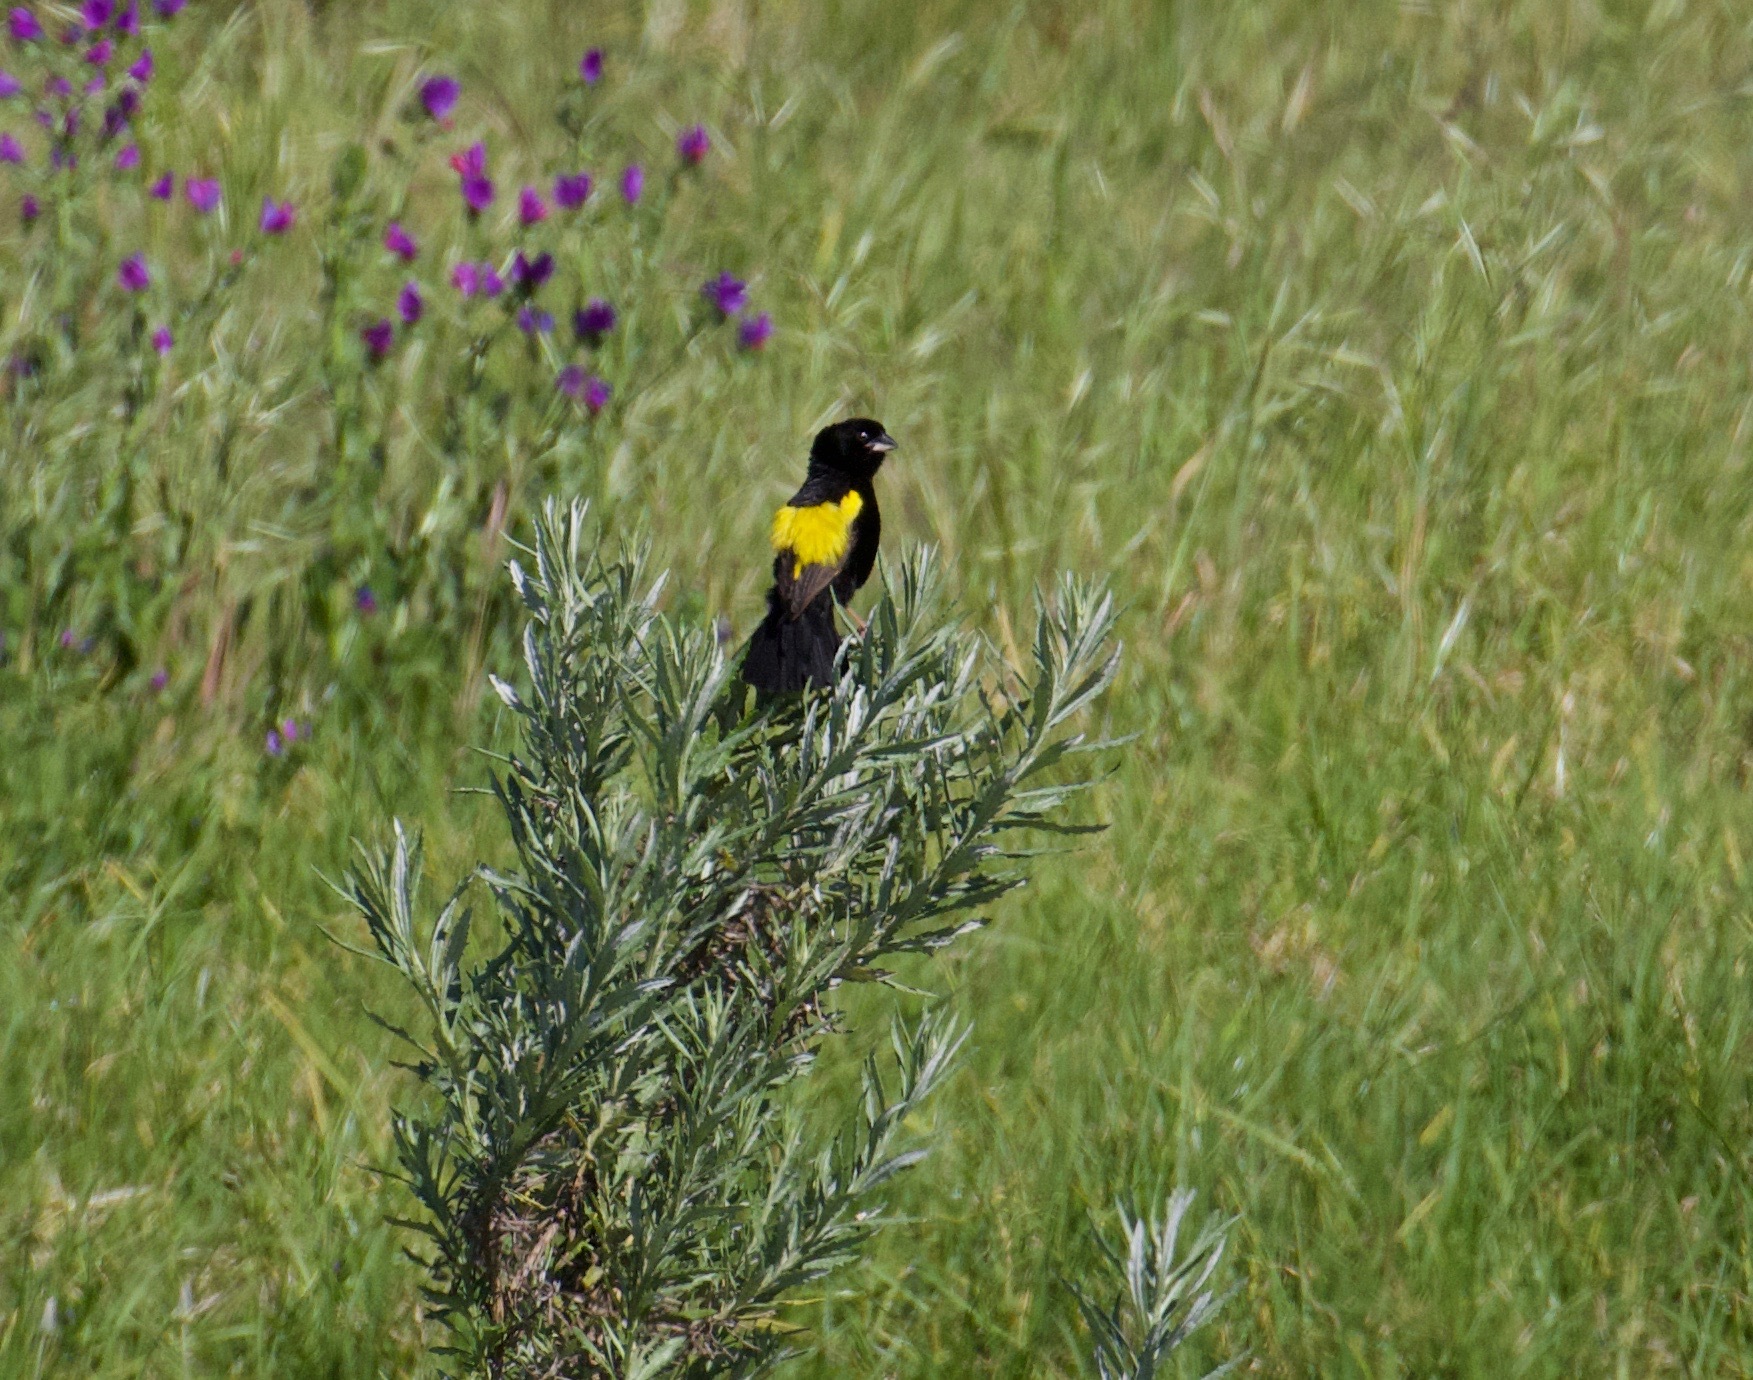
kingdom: Animalia
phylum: Chordata
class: Aves
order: Passeriformes
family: Ploceidae
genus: Euplectes
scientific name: Euplectes capensis
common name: Yellow bishop
